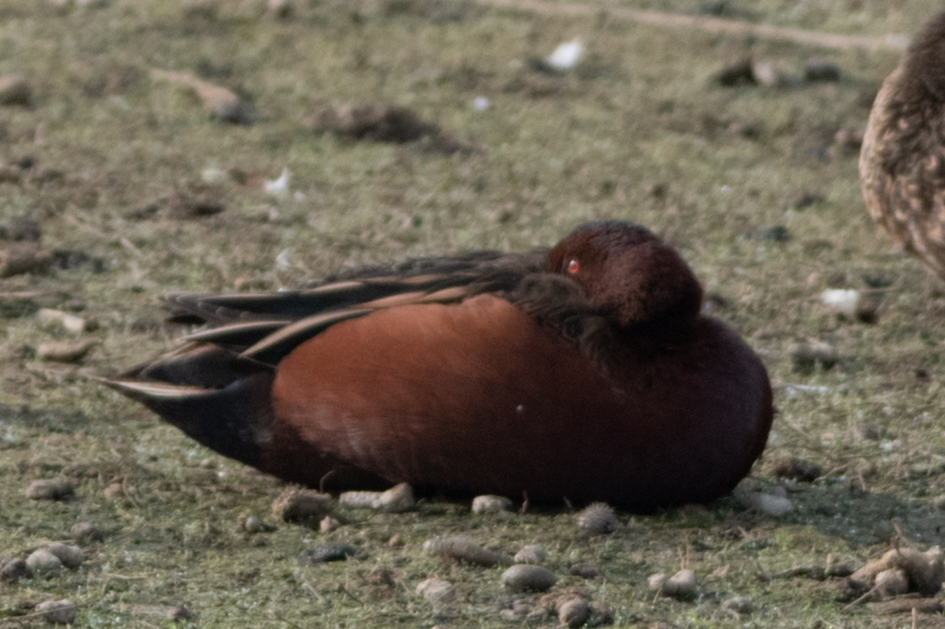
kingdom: Animalia
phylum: Chordata
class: Aves
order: Anseriformes
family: Anatidae
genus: Spatula
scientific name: Spatula cyanoptera
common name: Cinnamon teal
